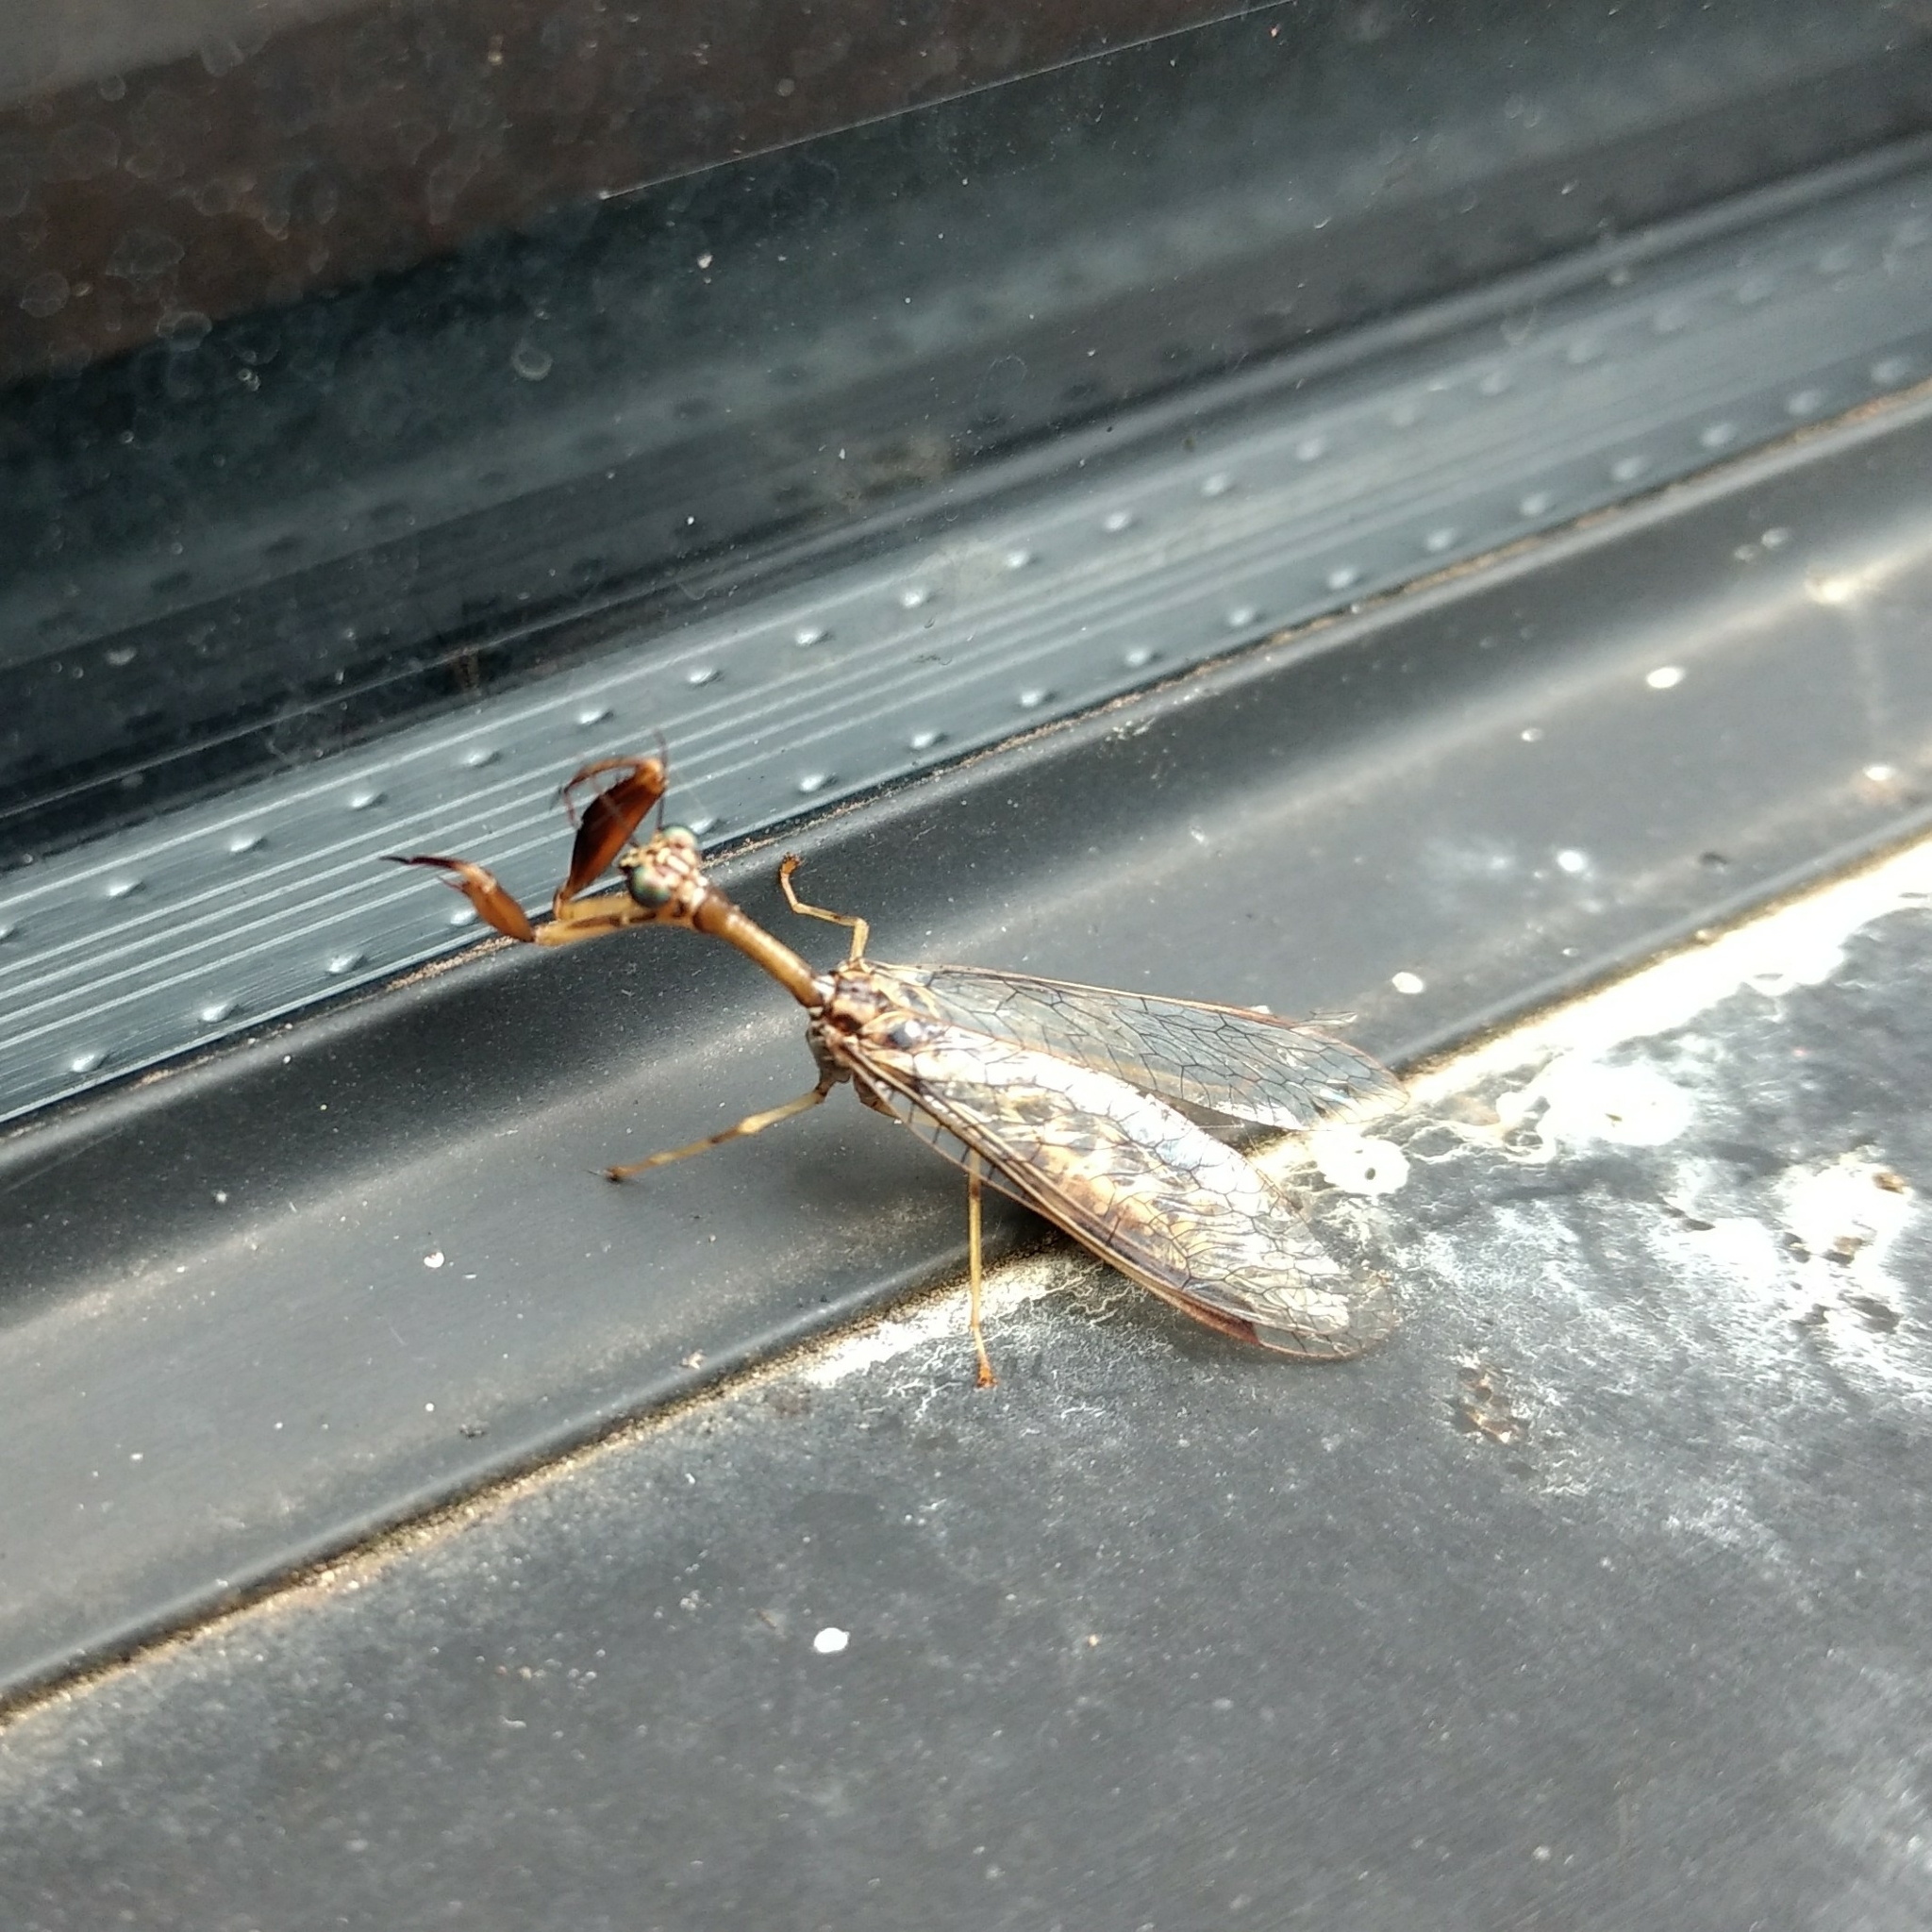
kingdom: Animalia
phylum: Arthropoda
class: Insecta
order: Neuroptera
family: Mantispidae
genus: Dicromantispa
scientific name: Dicromantispa sayi
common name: Say's mantidfly
